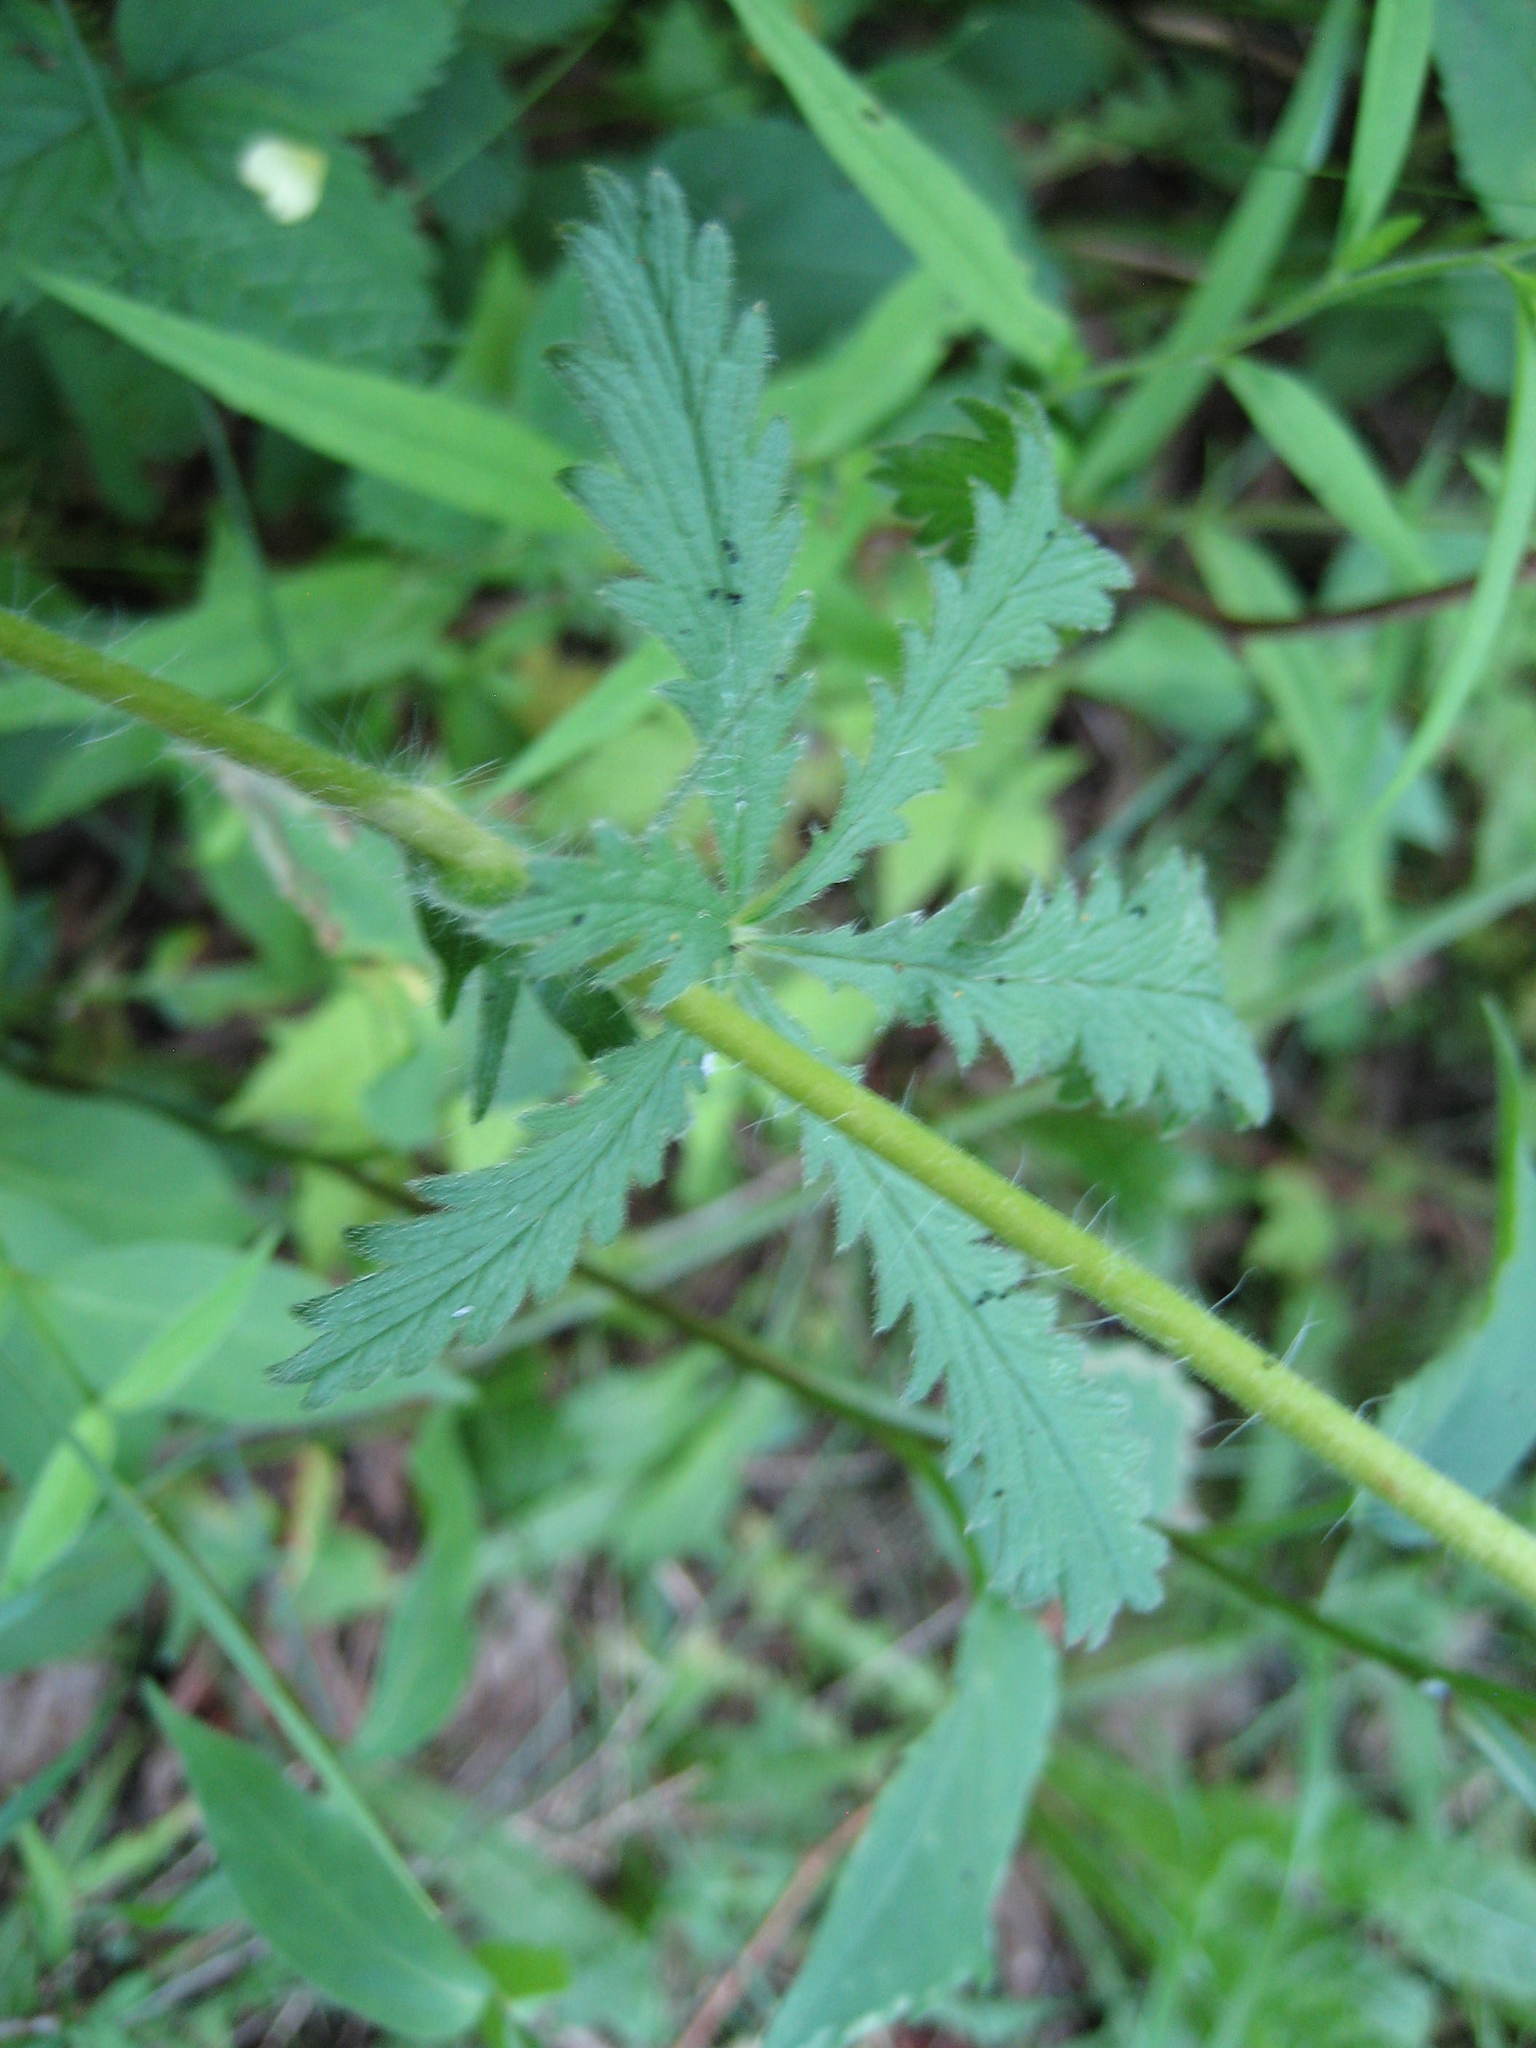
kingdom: Plantae
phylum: Tracheophyta
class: Magnoliopsida
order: Rosales
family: Rosaceae
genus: Potentilla
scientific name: Potentilla recta
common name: Sulphur cinquefoil
